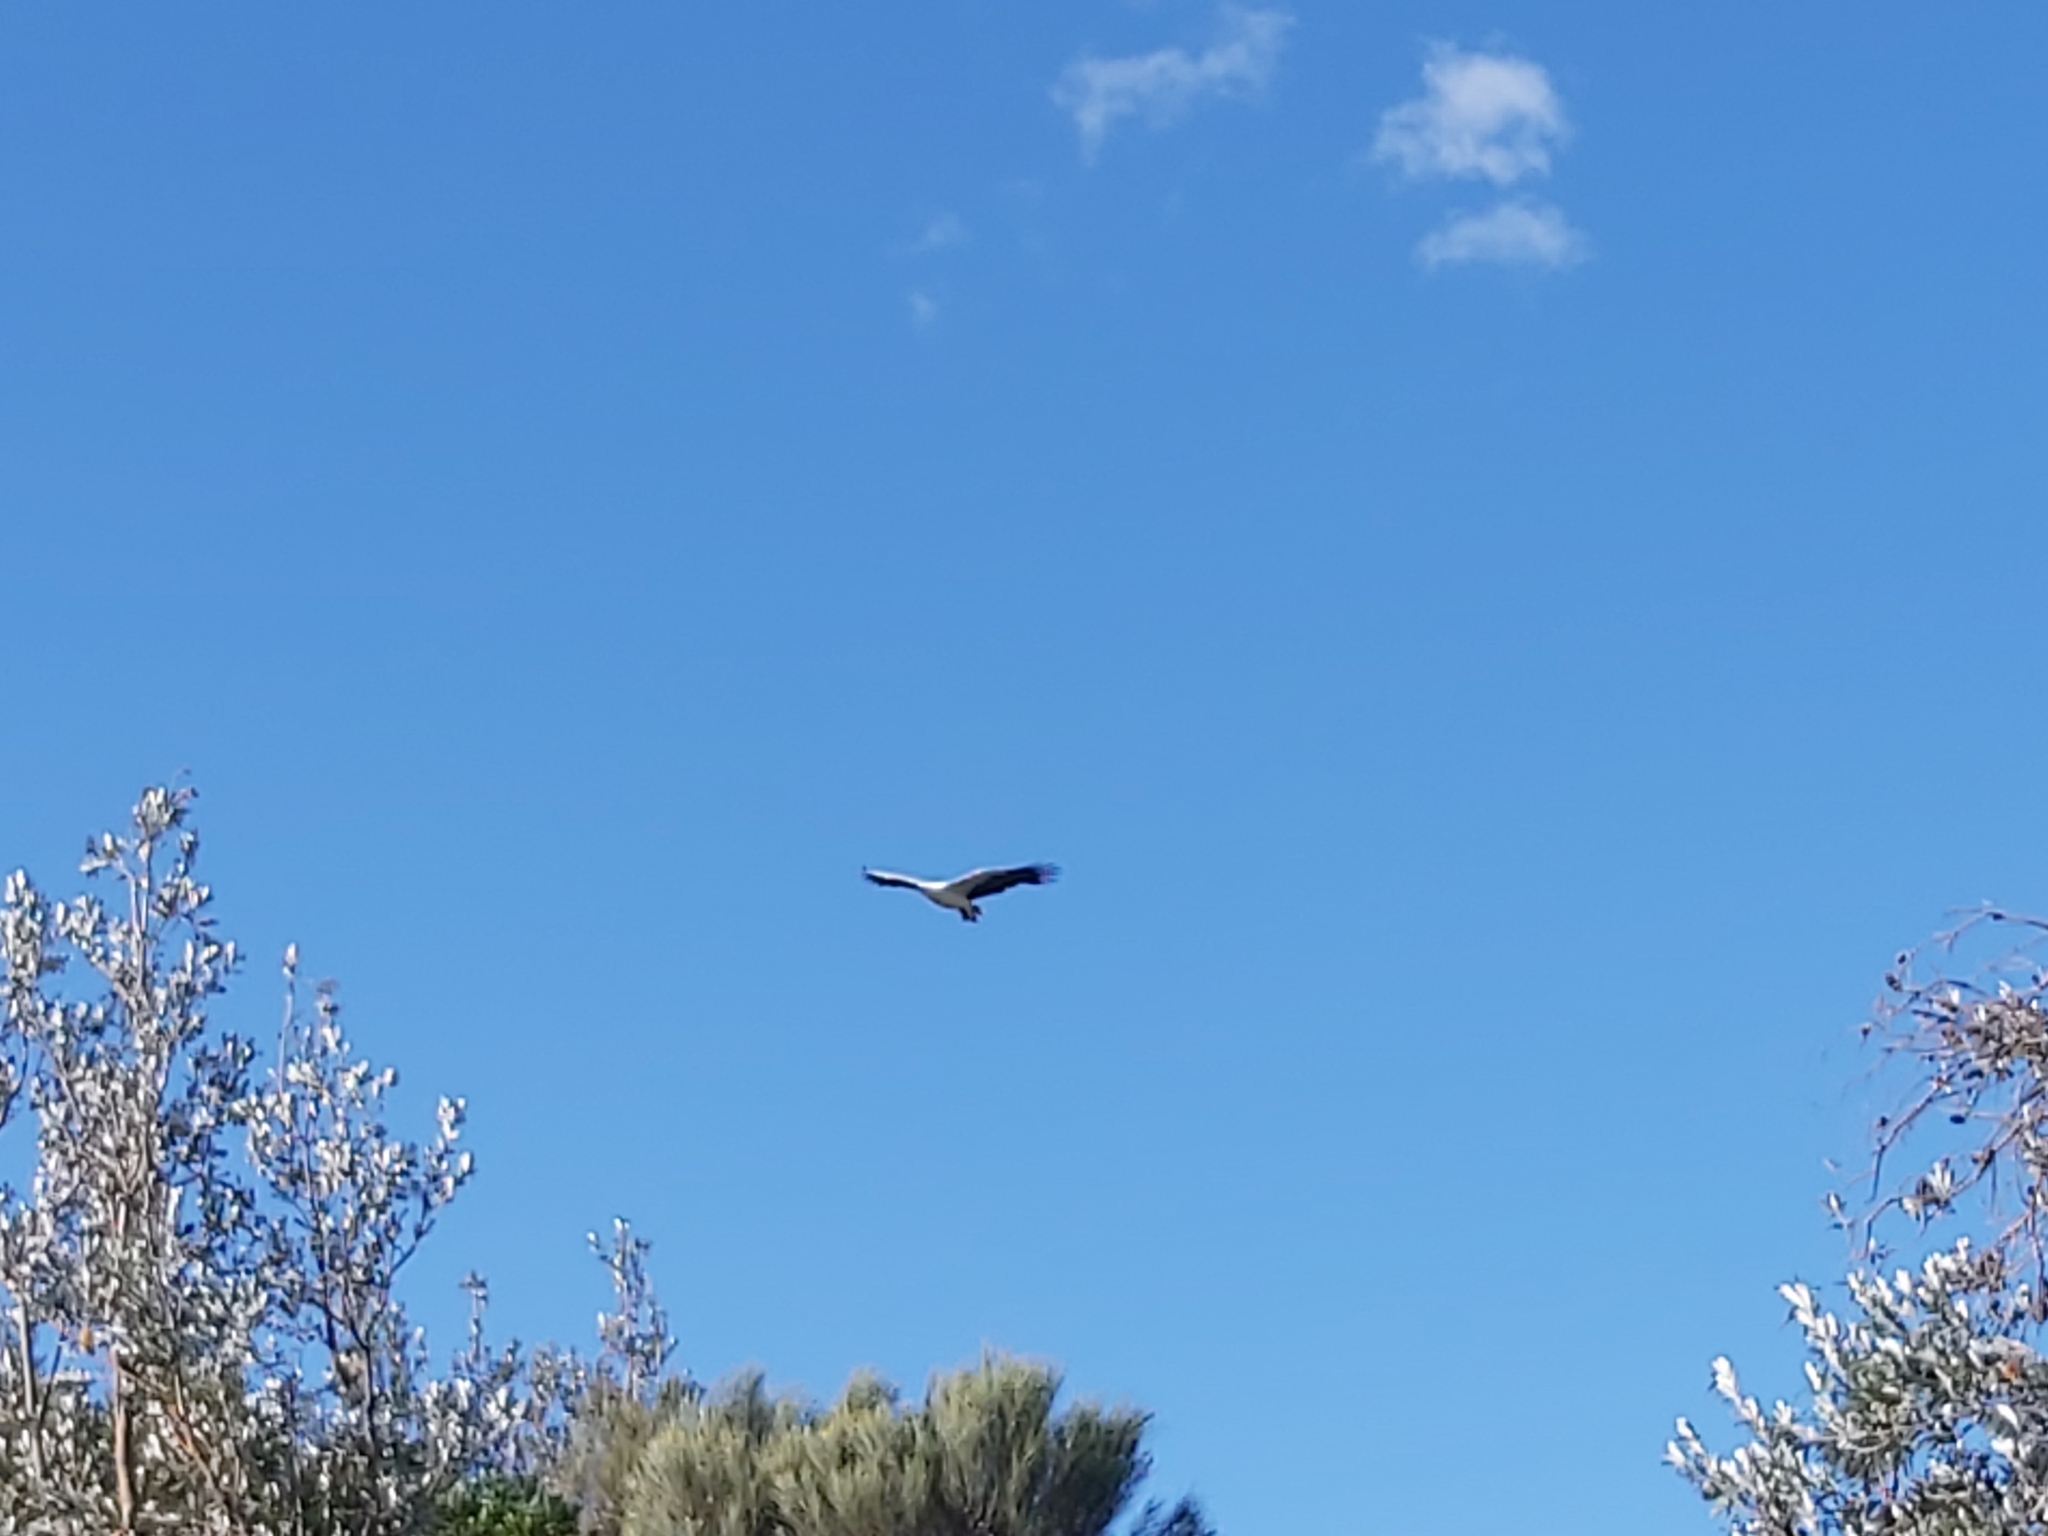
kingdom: Animalia
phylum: Chordata
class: Aves
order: Accipitriformes
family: Accipitridae
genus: Haliaeetus
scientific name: Haliaeetus leucogaster
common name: White-bellied sea eagle
